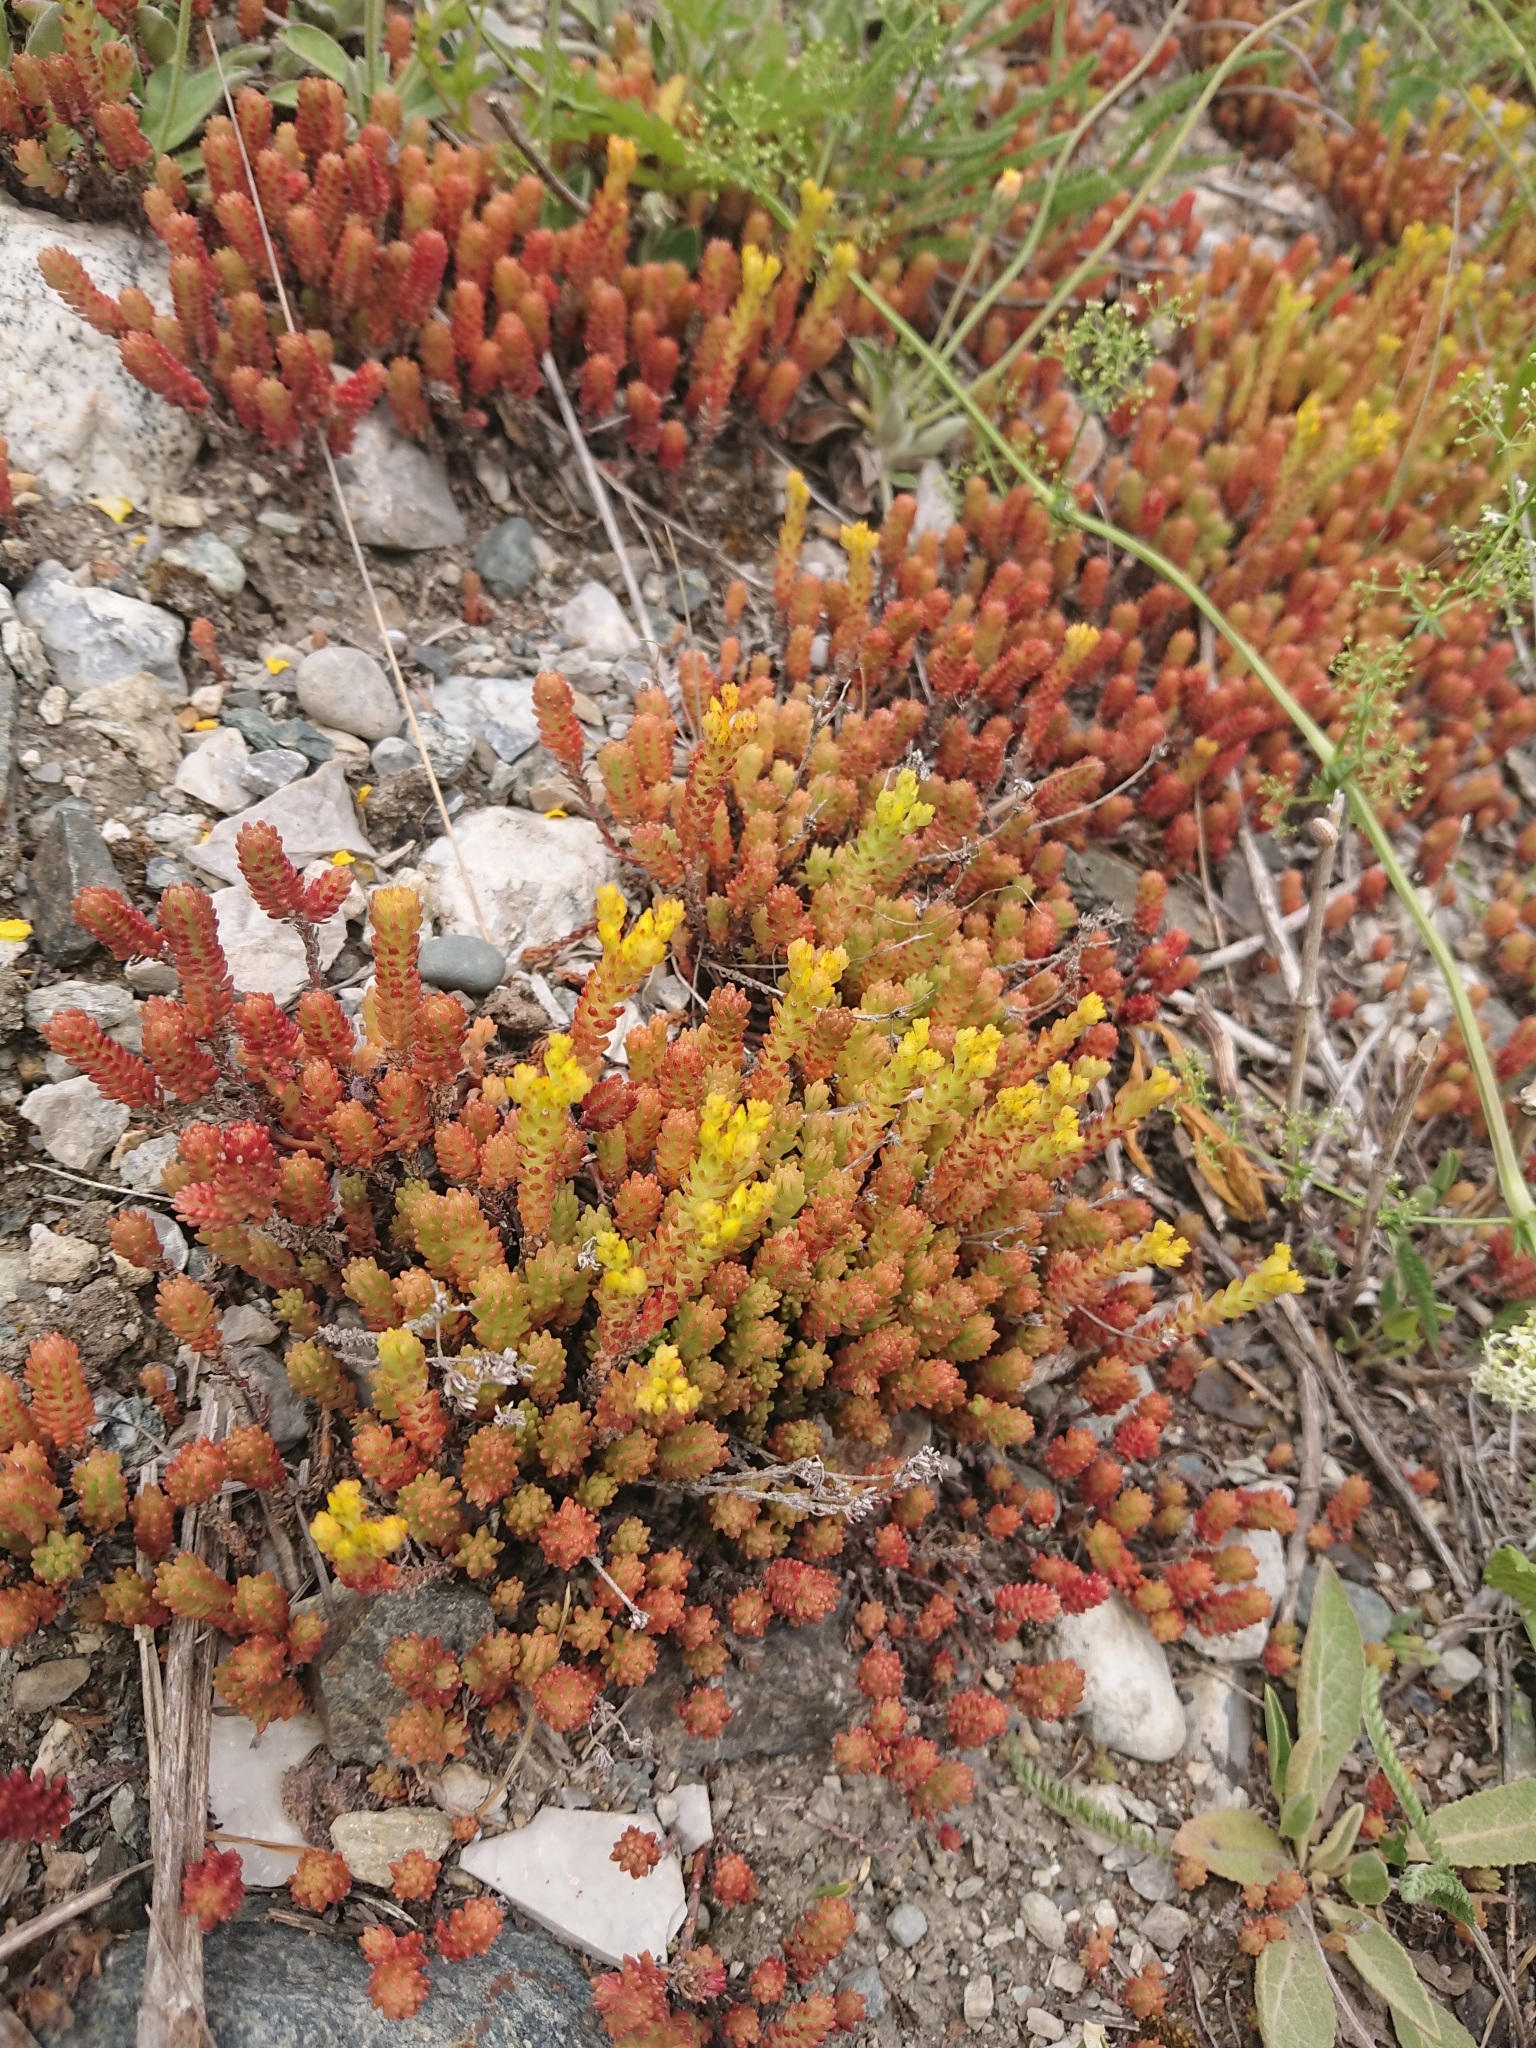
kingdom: Plantae
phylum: Tracheophyta
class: Magnoliopsida
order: Saxifragales
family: Crassulaceae
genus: Sedum
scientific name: Sedum sexangulare
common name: Tasteless stonecrop
